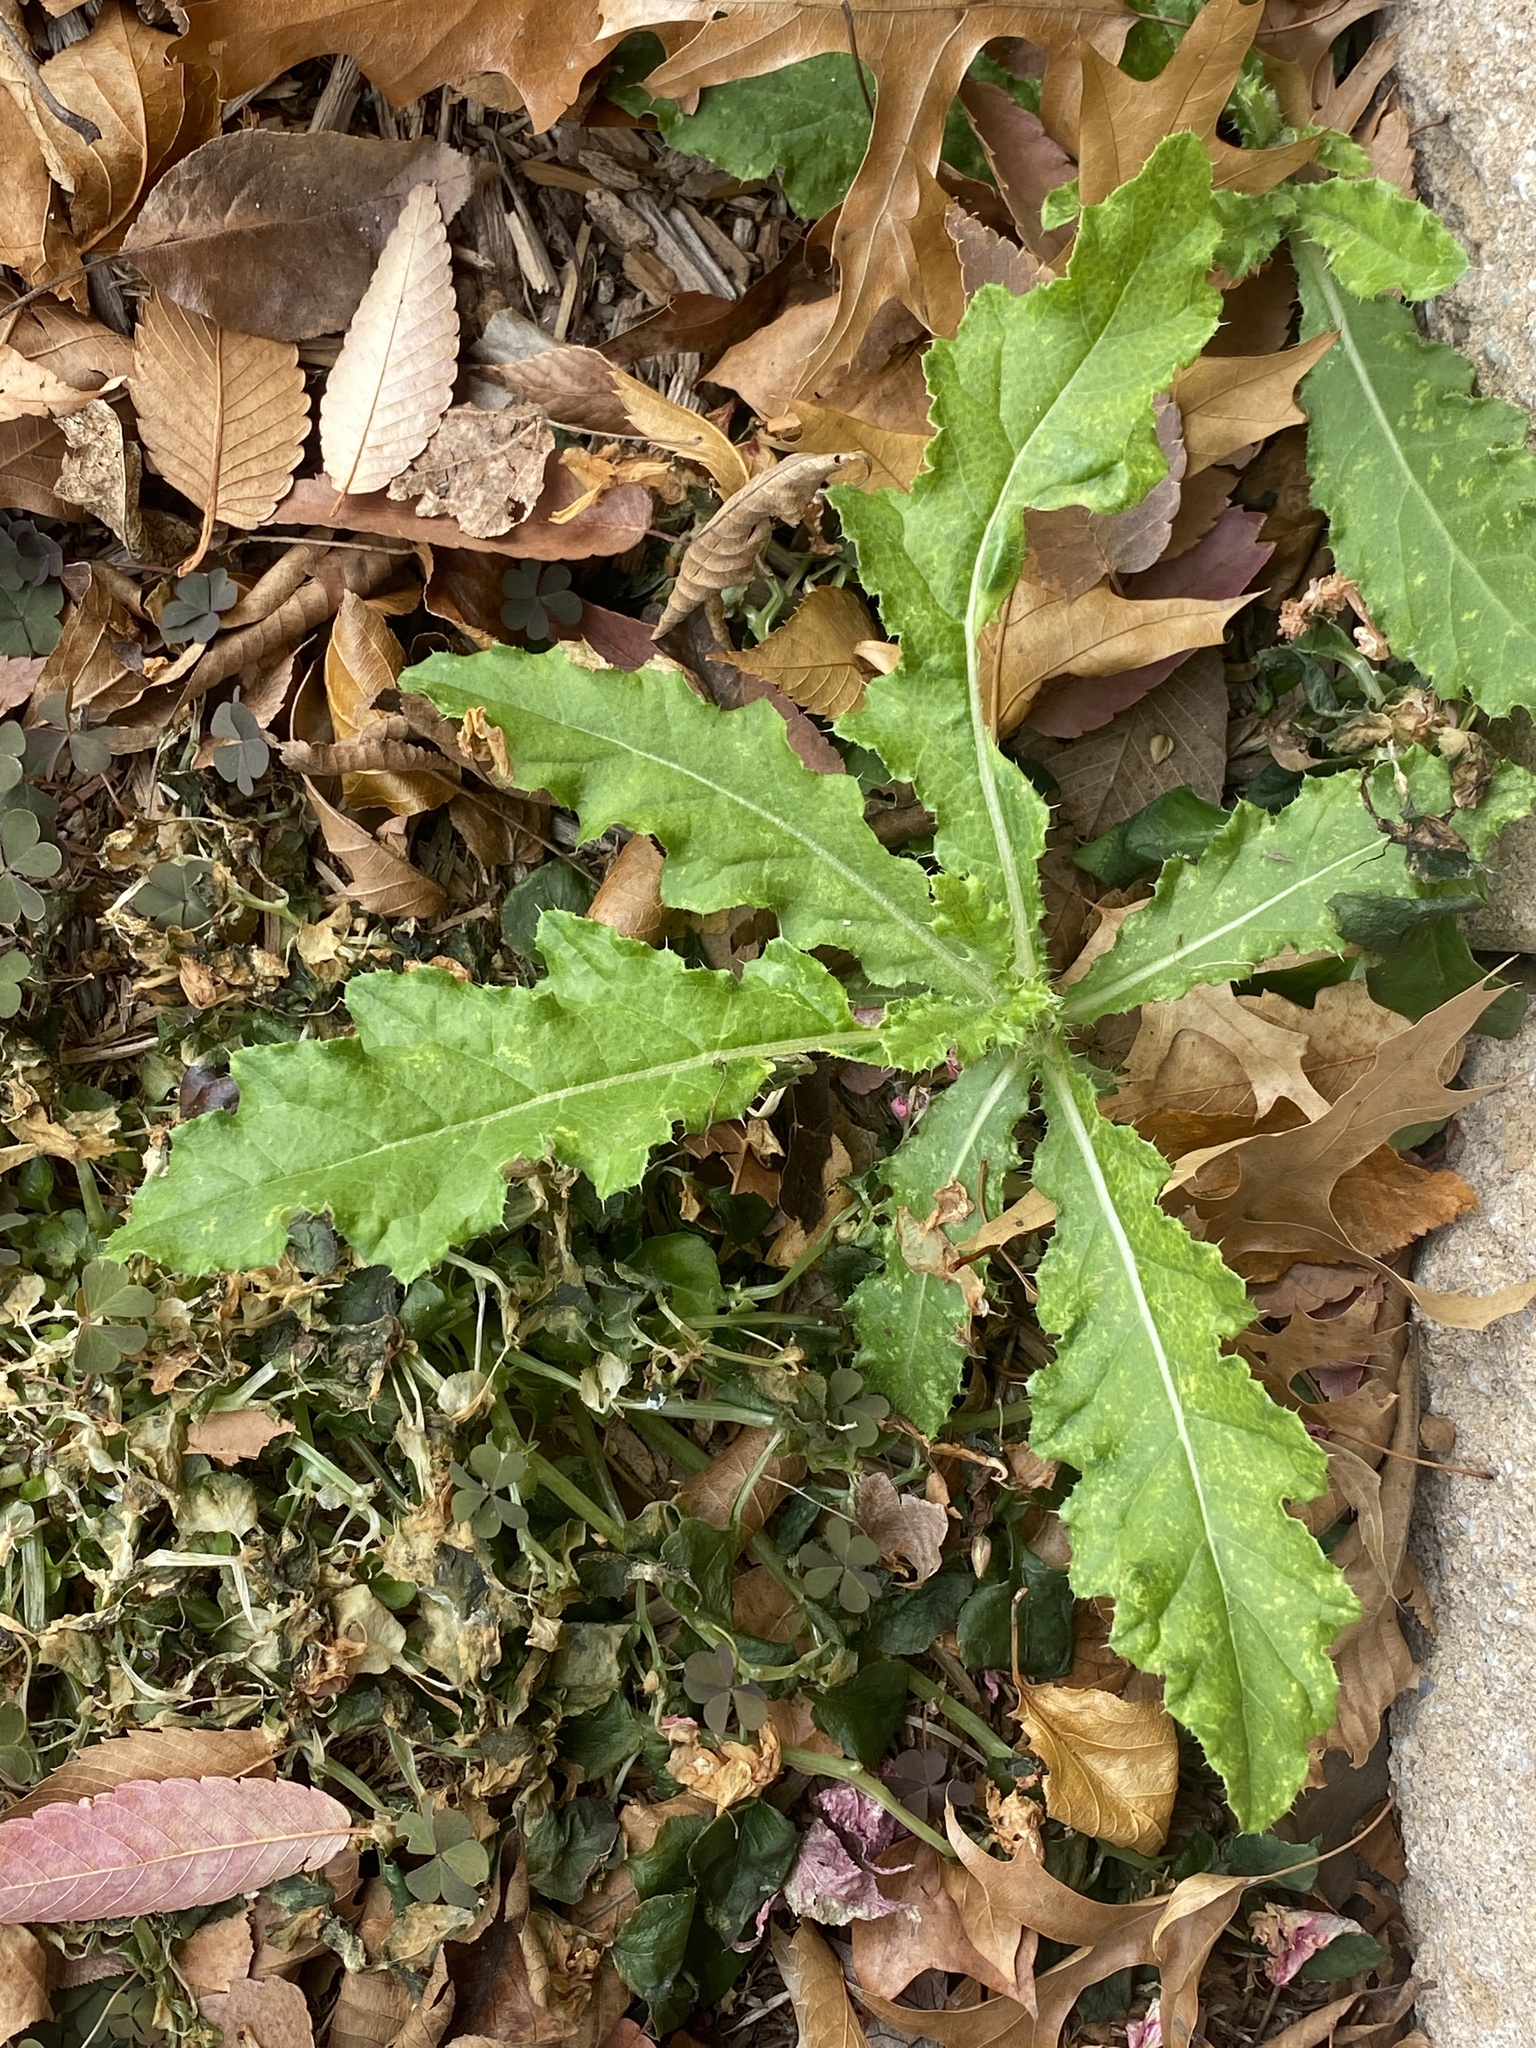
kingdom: Plantae
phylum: Tracheophyta
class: Magnoliopsida
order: Asterales
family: Asteraceae
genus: Cirsium
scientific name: Cirsium arvense
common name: Creeping thistle
